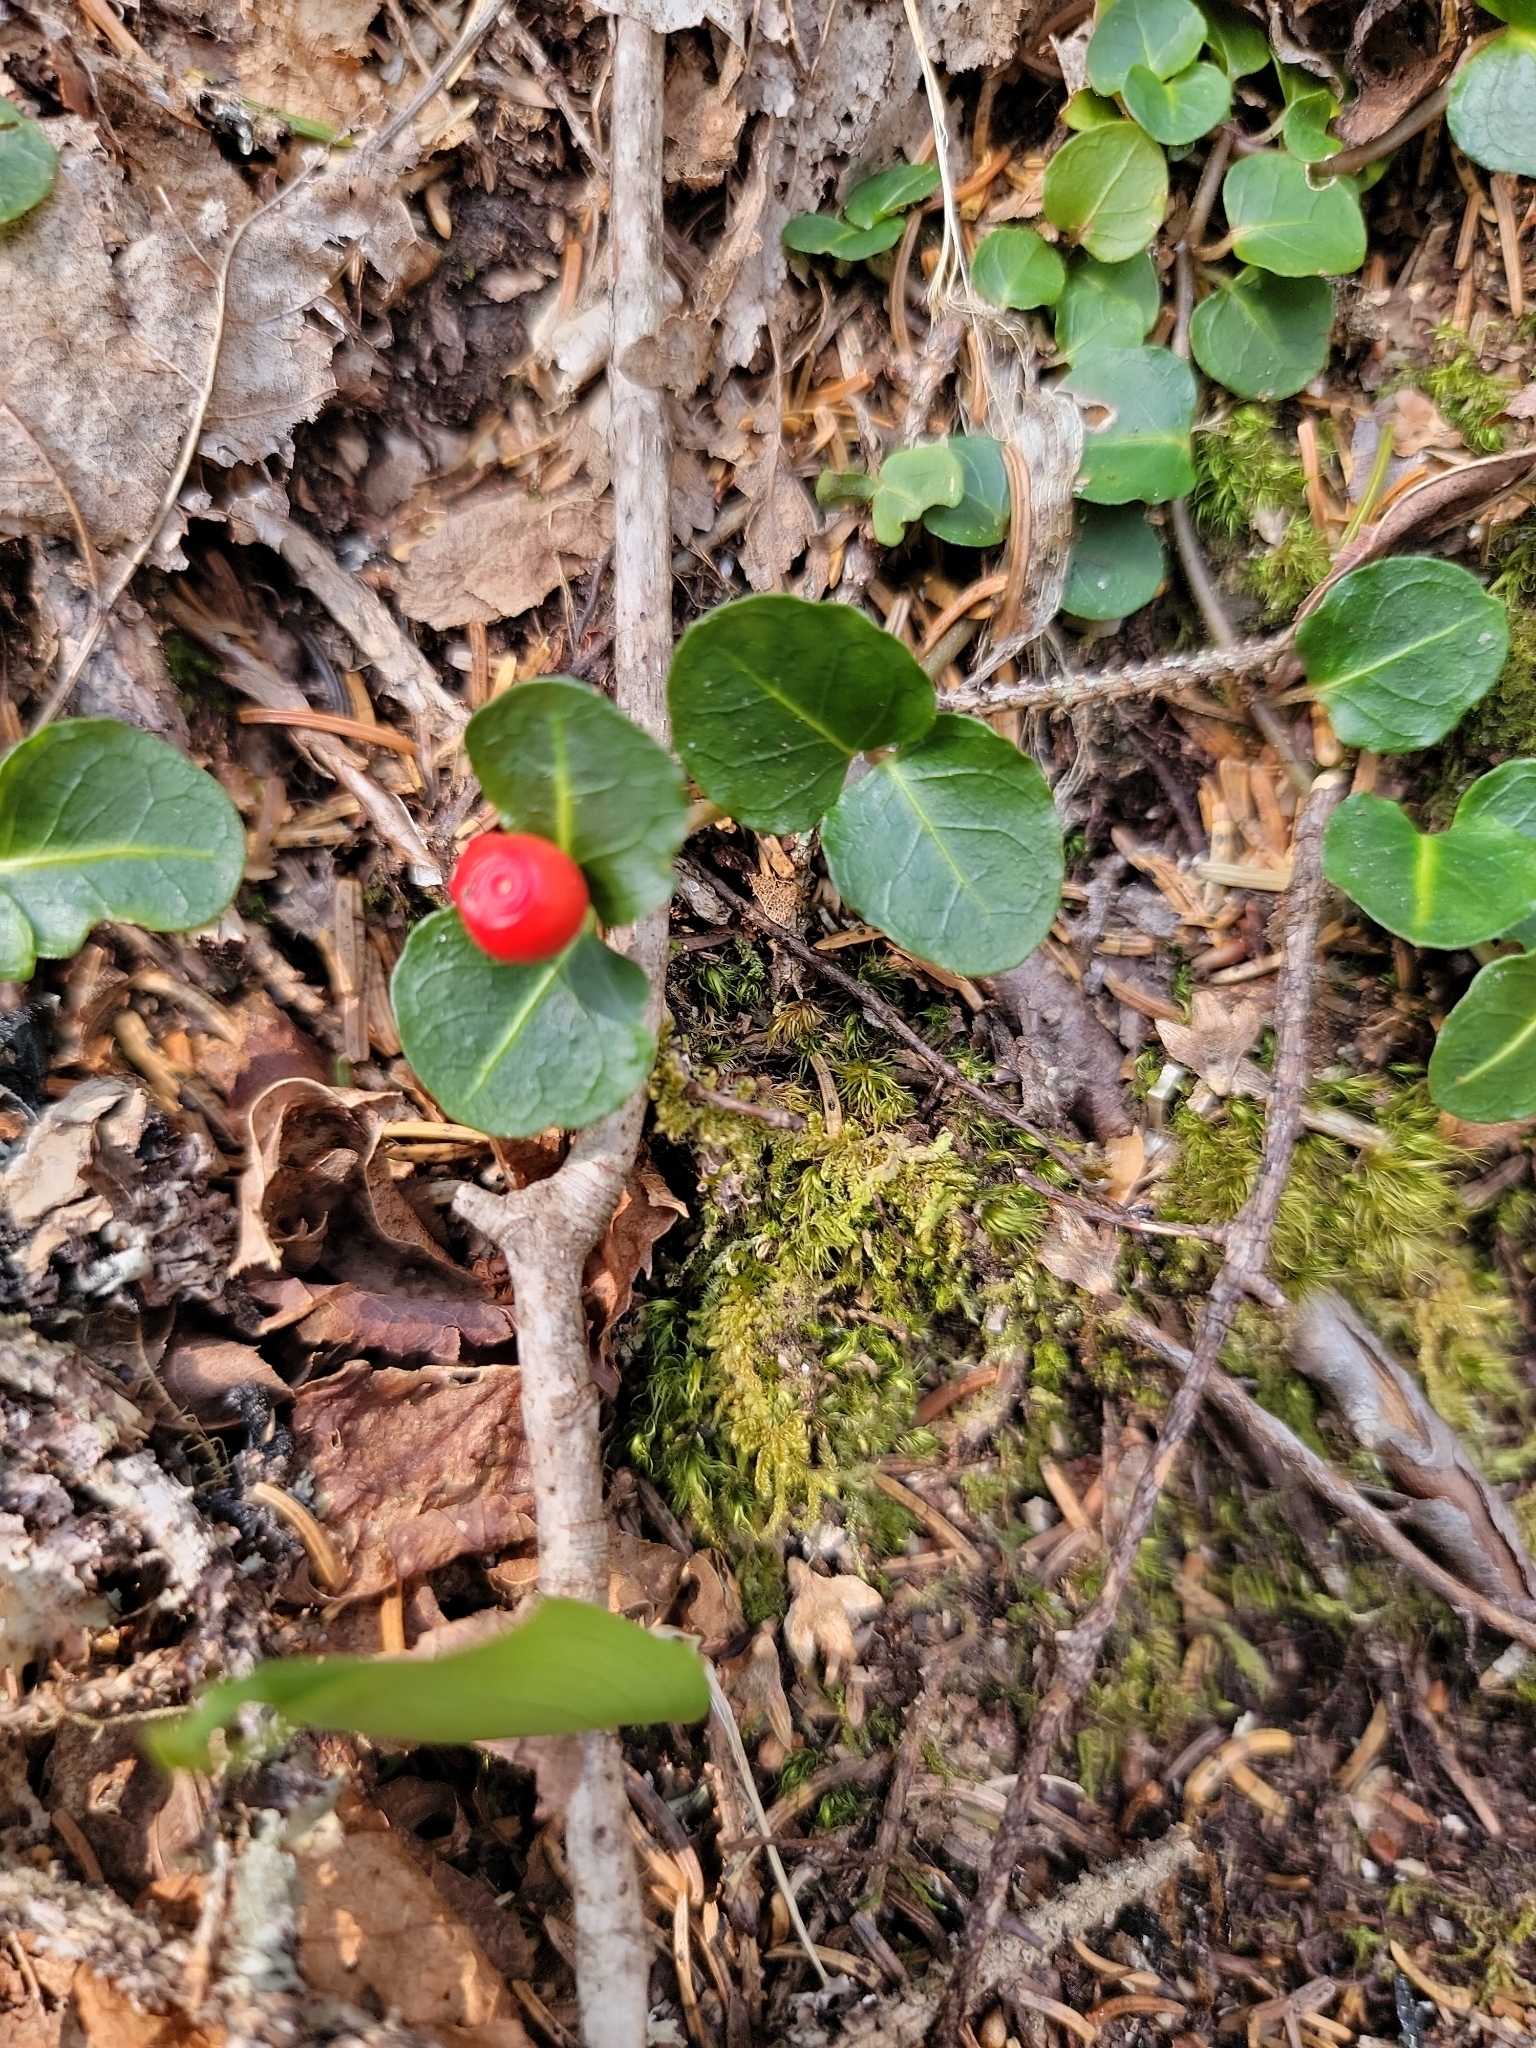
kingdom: Plantae
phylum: Tracheophyta
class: Magnoliopsida
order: Gentianales
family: Rubiaceae
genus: Mitchella
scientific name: Mitchella repens
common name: Partridge-berry
